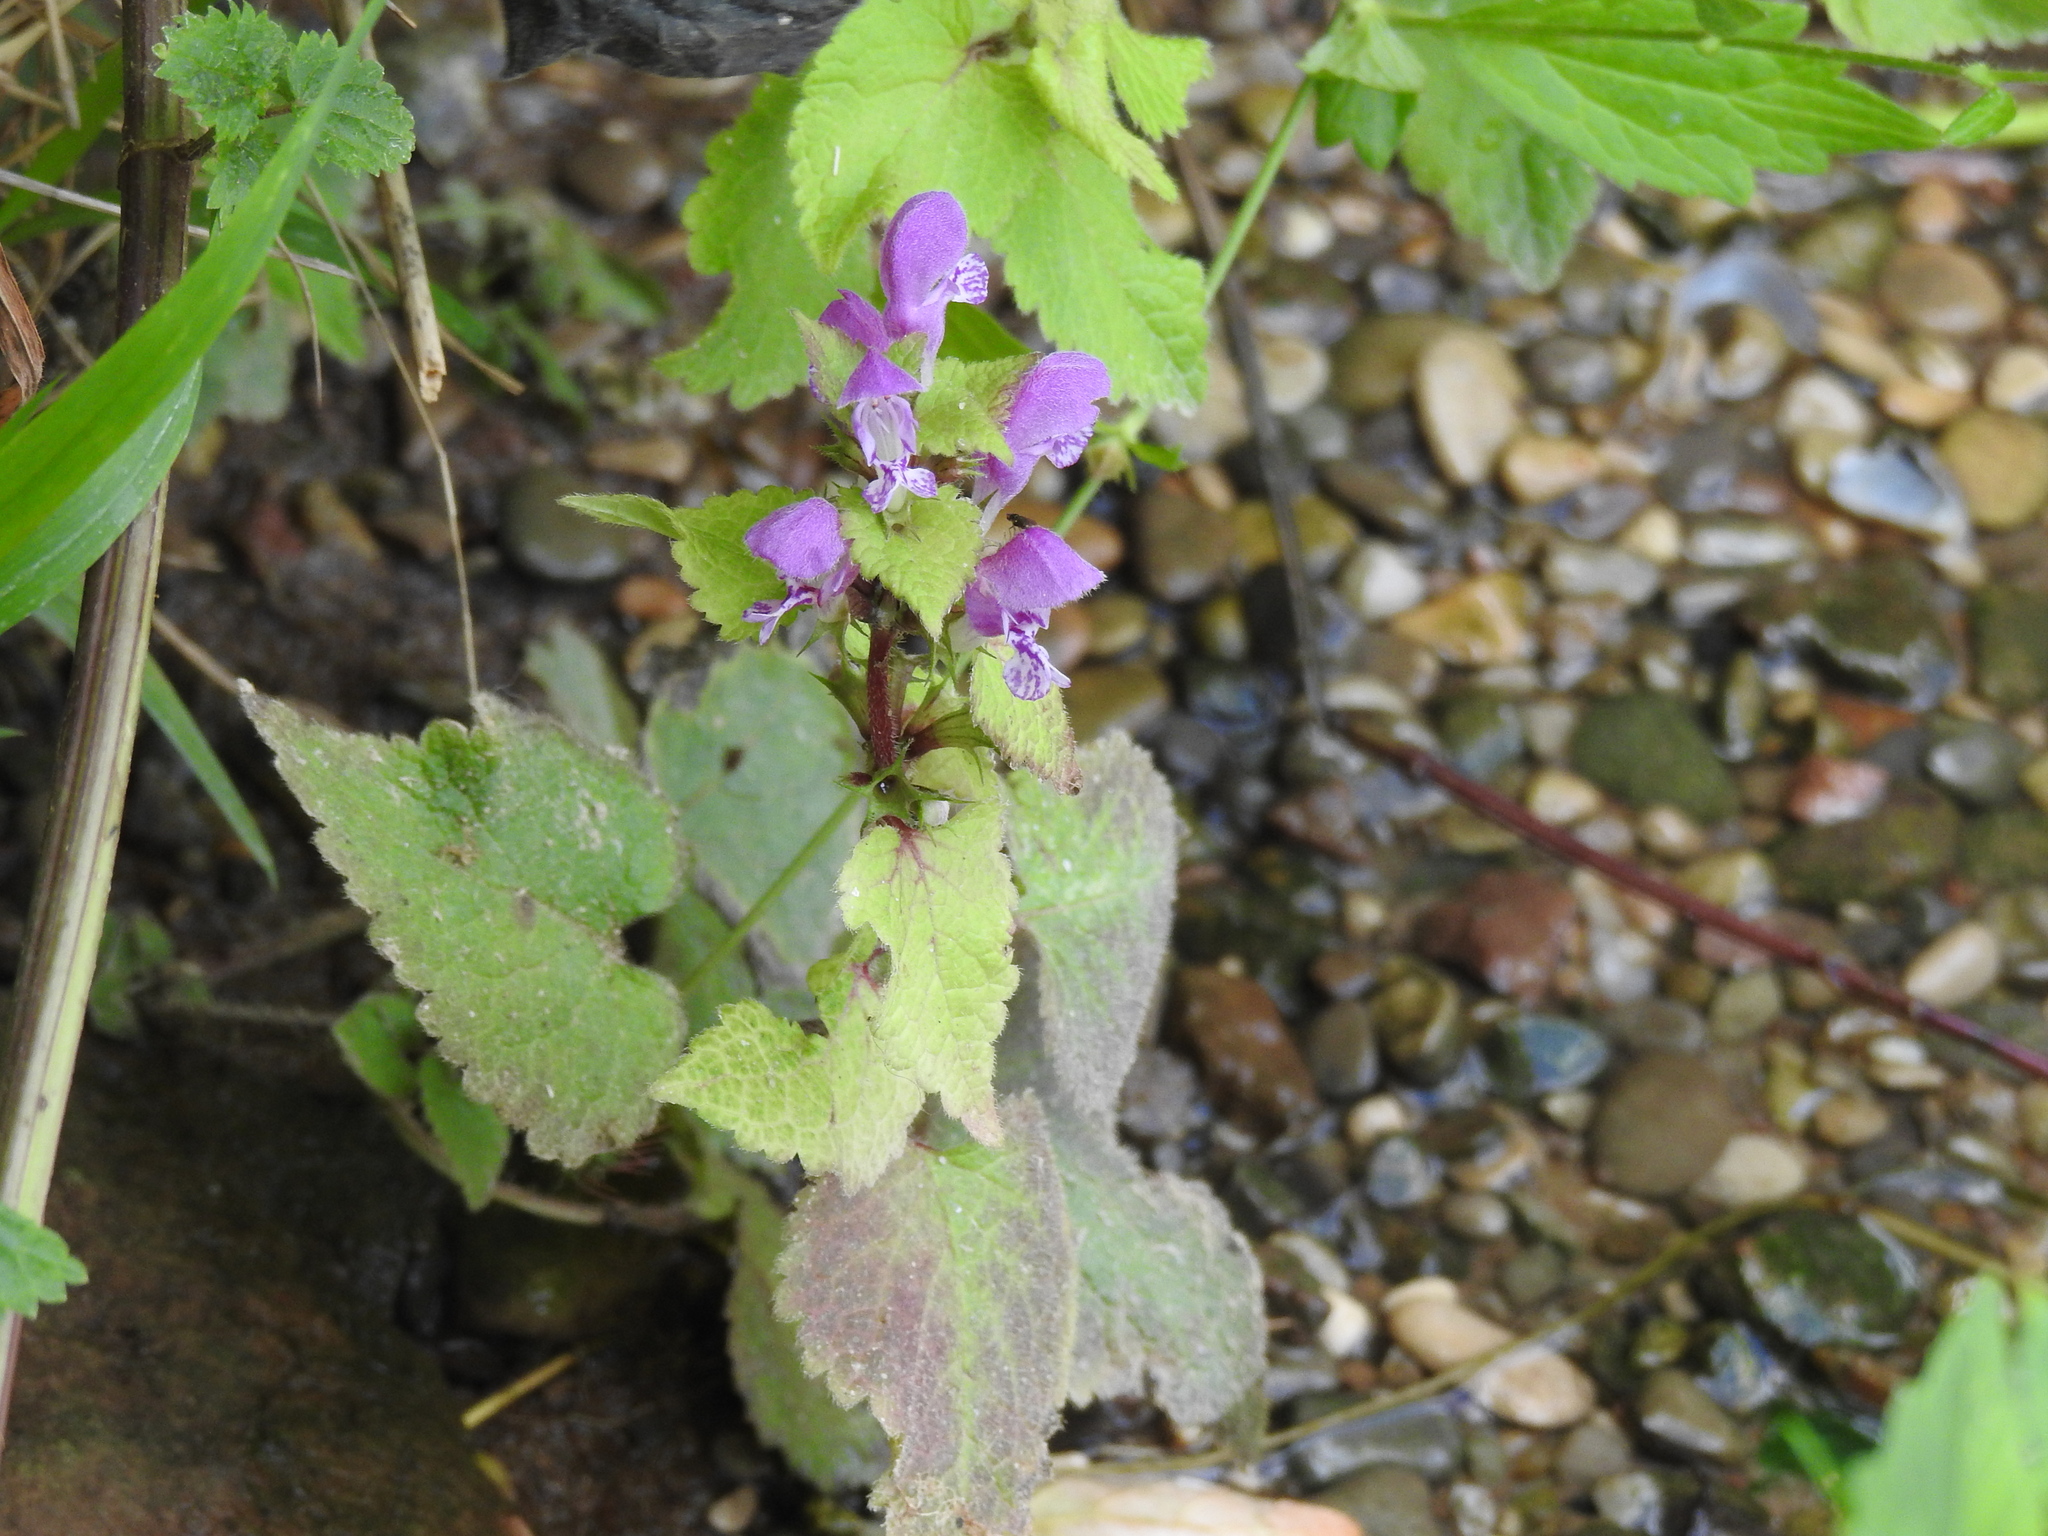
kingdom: Plantae
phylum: Tracheophyta
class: Magnoliopsida
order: Lamiales
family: Lamiaceae
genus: Lamium
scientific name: Lamium maculatum
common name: Spotted dead-nettle
